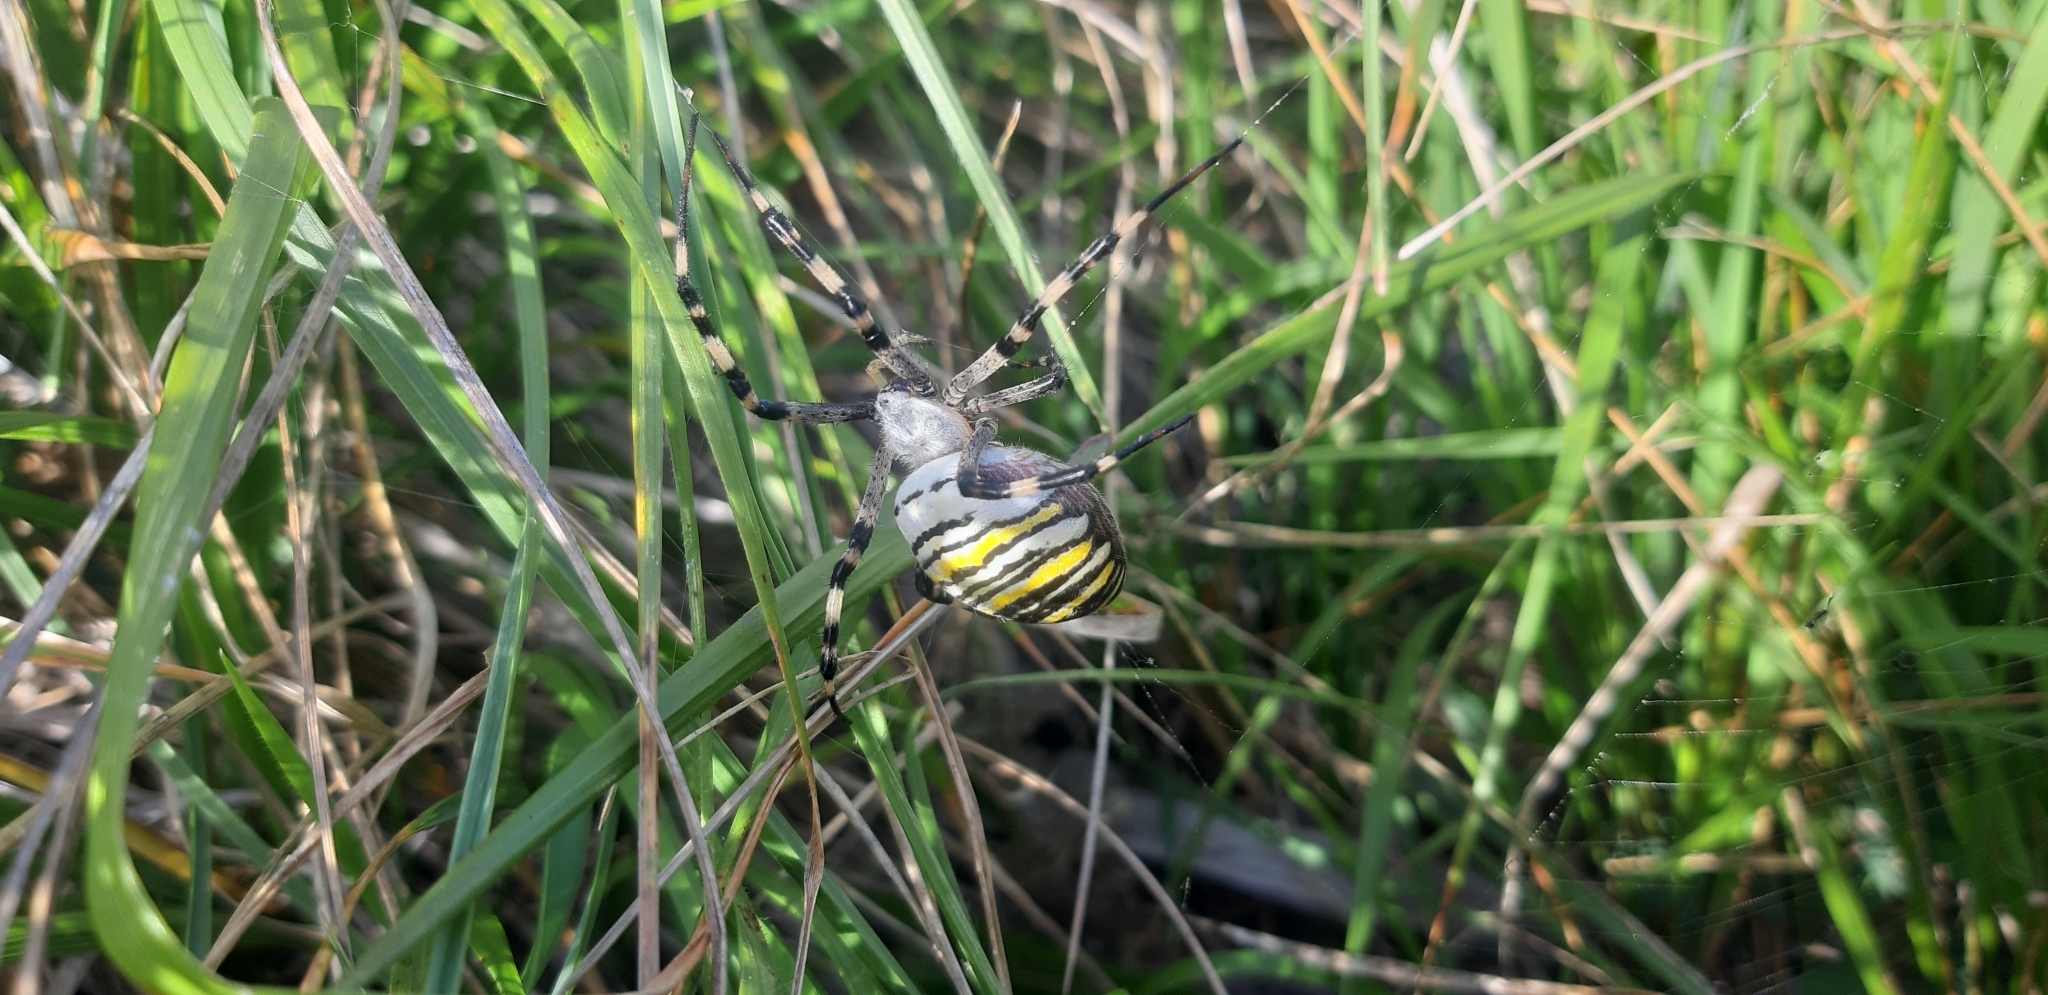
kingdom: Animalia
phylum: Arthropoda
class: Arachnida
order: Araneae
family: Araneidae
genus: Argiope
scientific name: Argiope bruennichi
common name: Wasp spider
